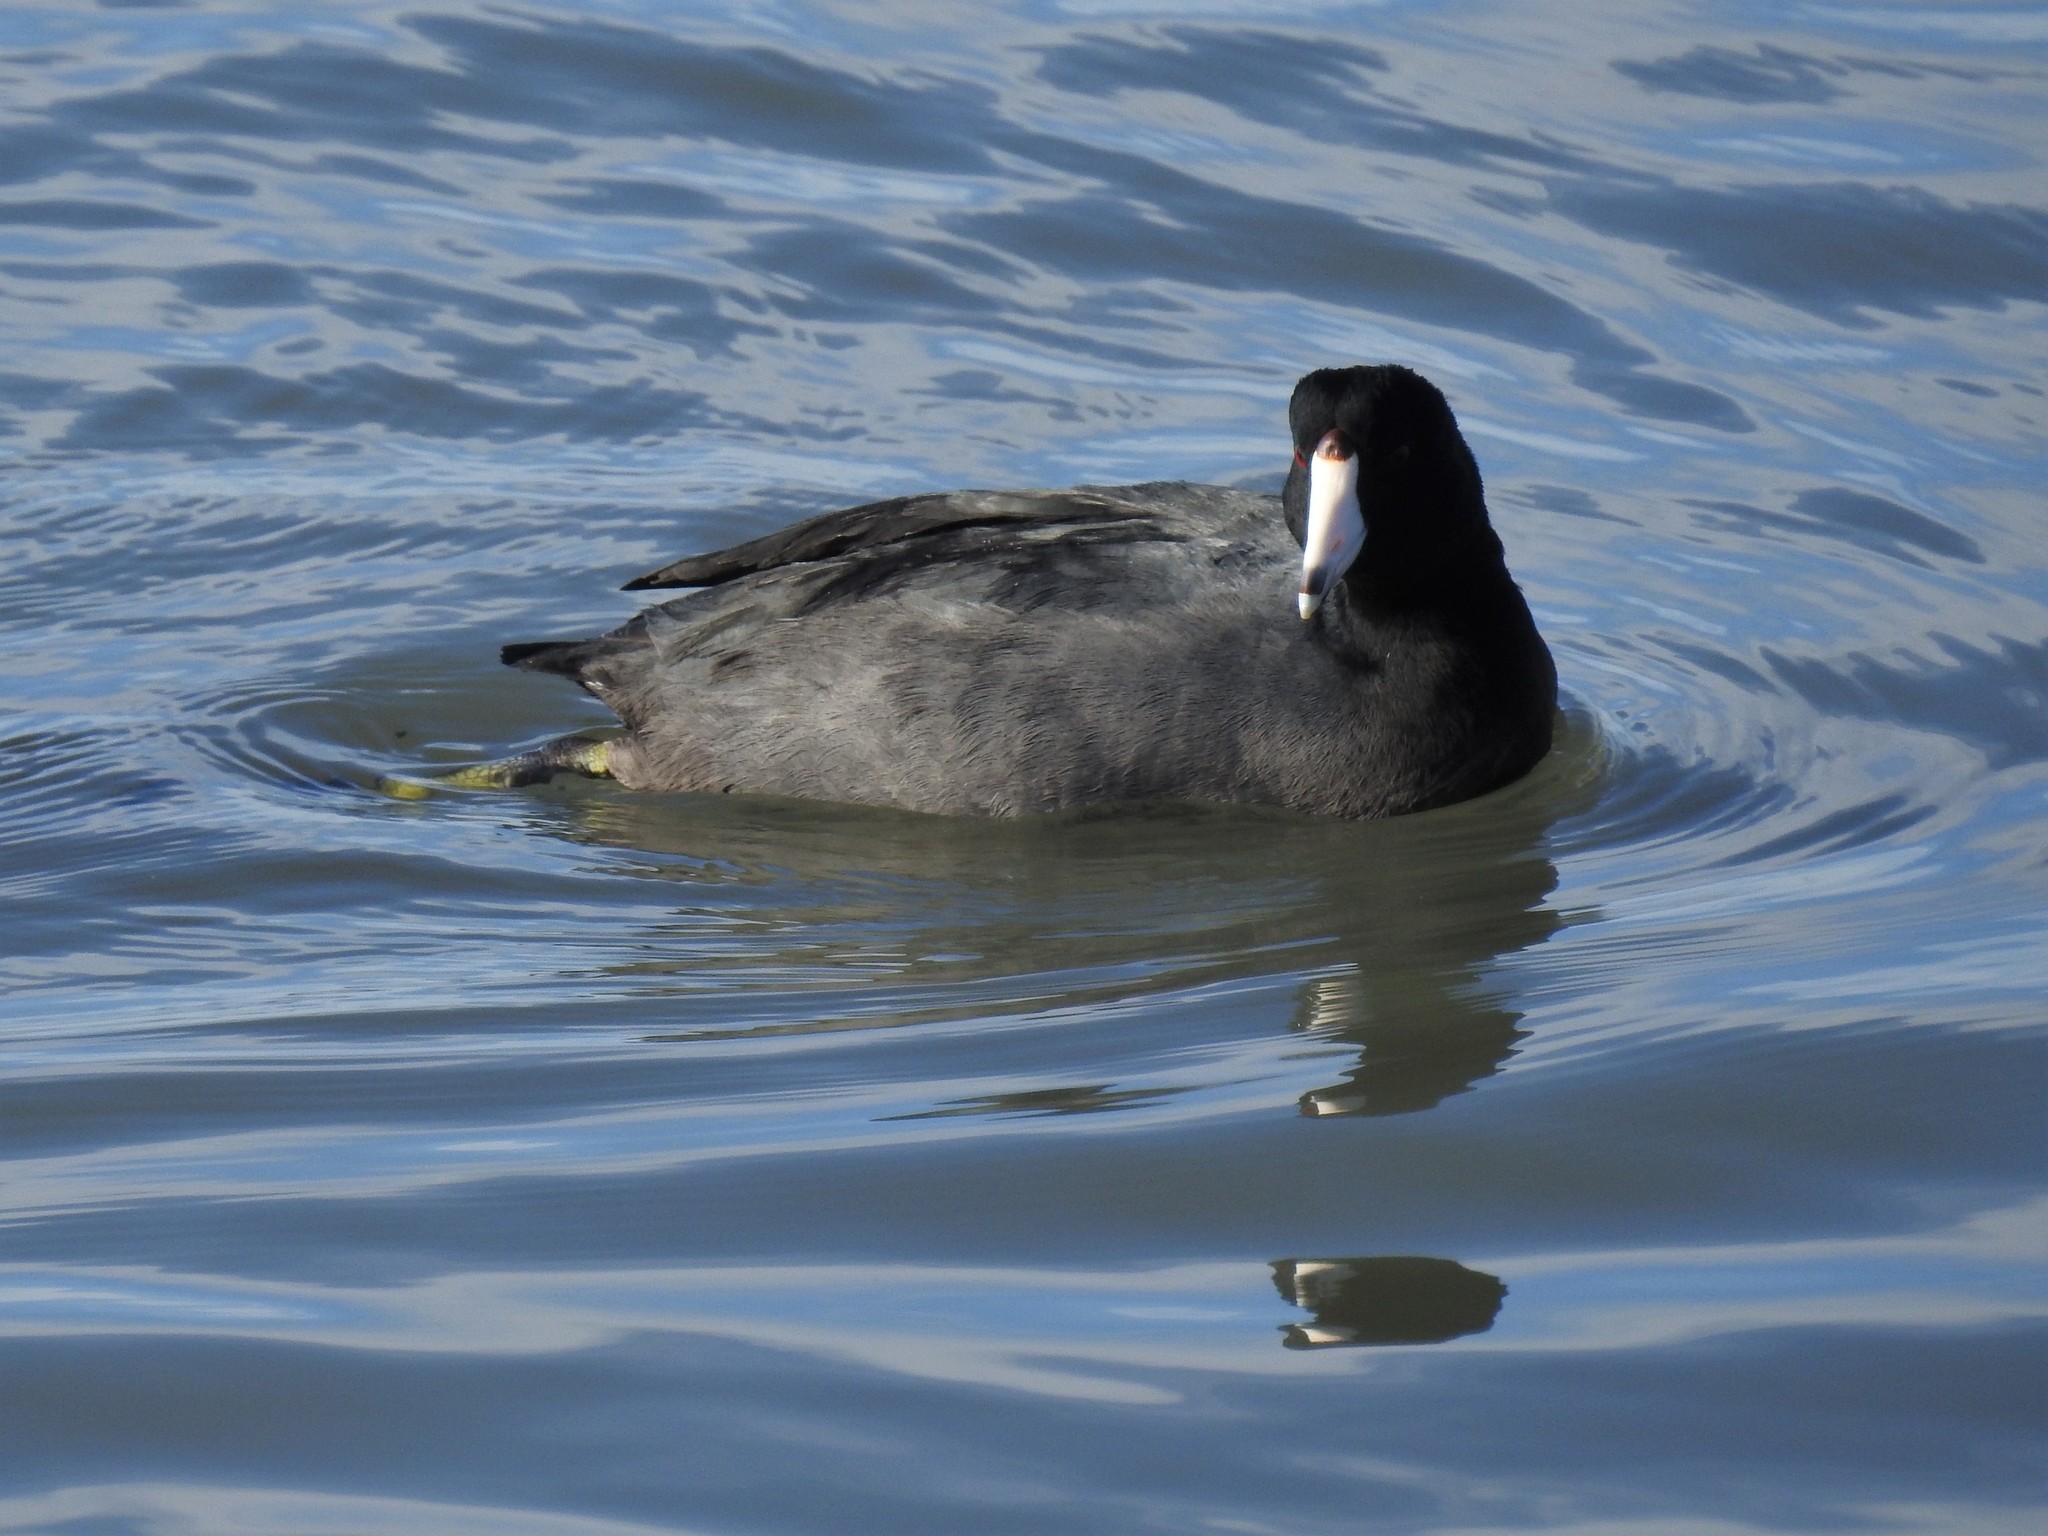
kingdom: Animalia
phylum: Chordata
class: Aves
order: Gruiformes
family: Rallidae
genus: Fulica
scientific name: Fulica americana
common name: American coot
